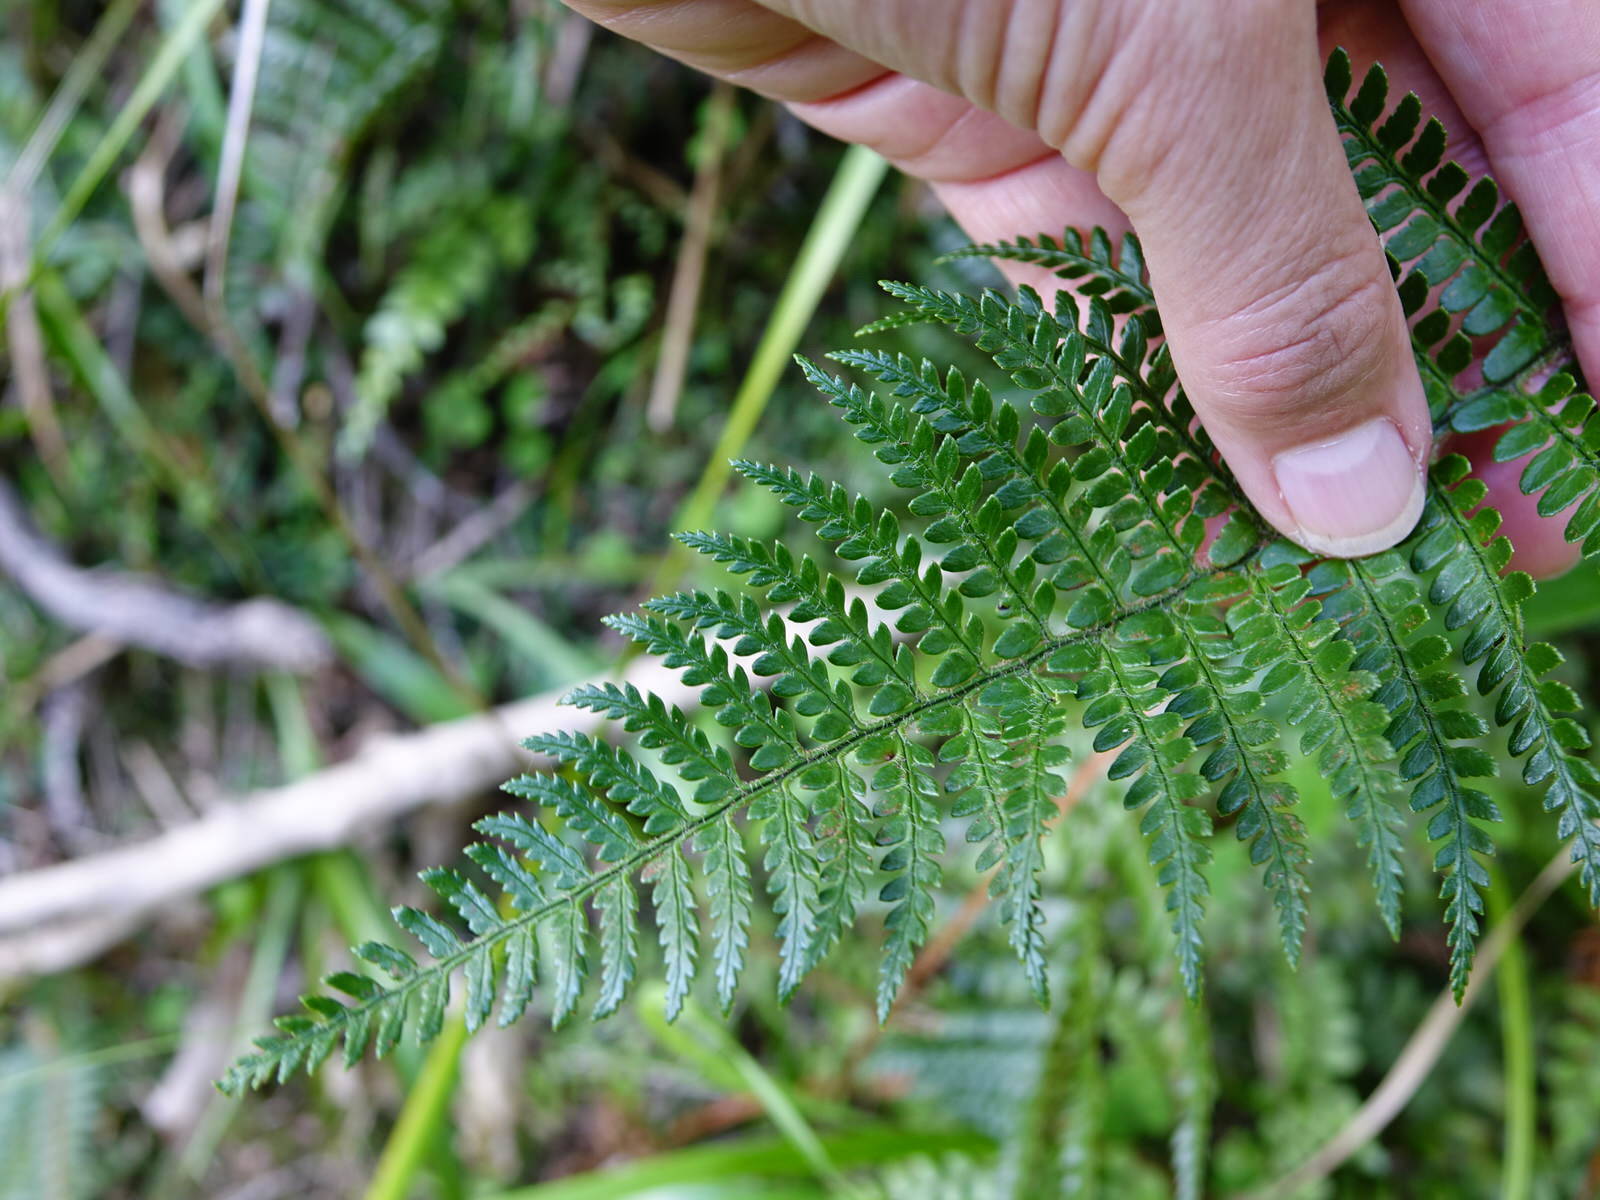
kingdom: Plantae
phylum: Tracheophyta
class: Polypodiopsida
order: Polypodiales
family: Dryopteridaceae
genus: Polystichum
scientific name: Polystichum wawranum
